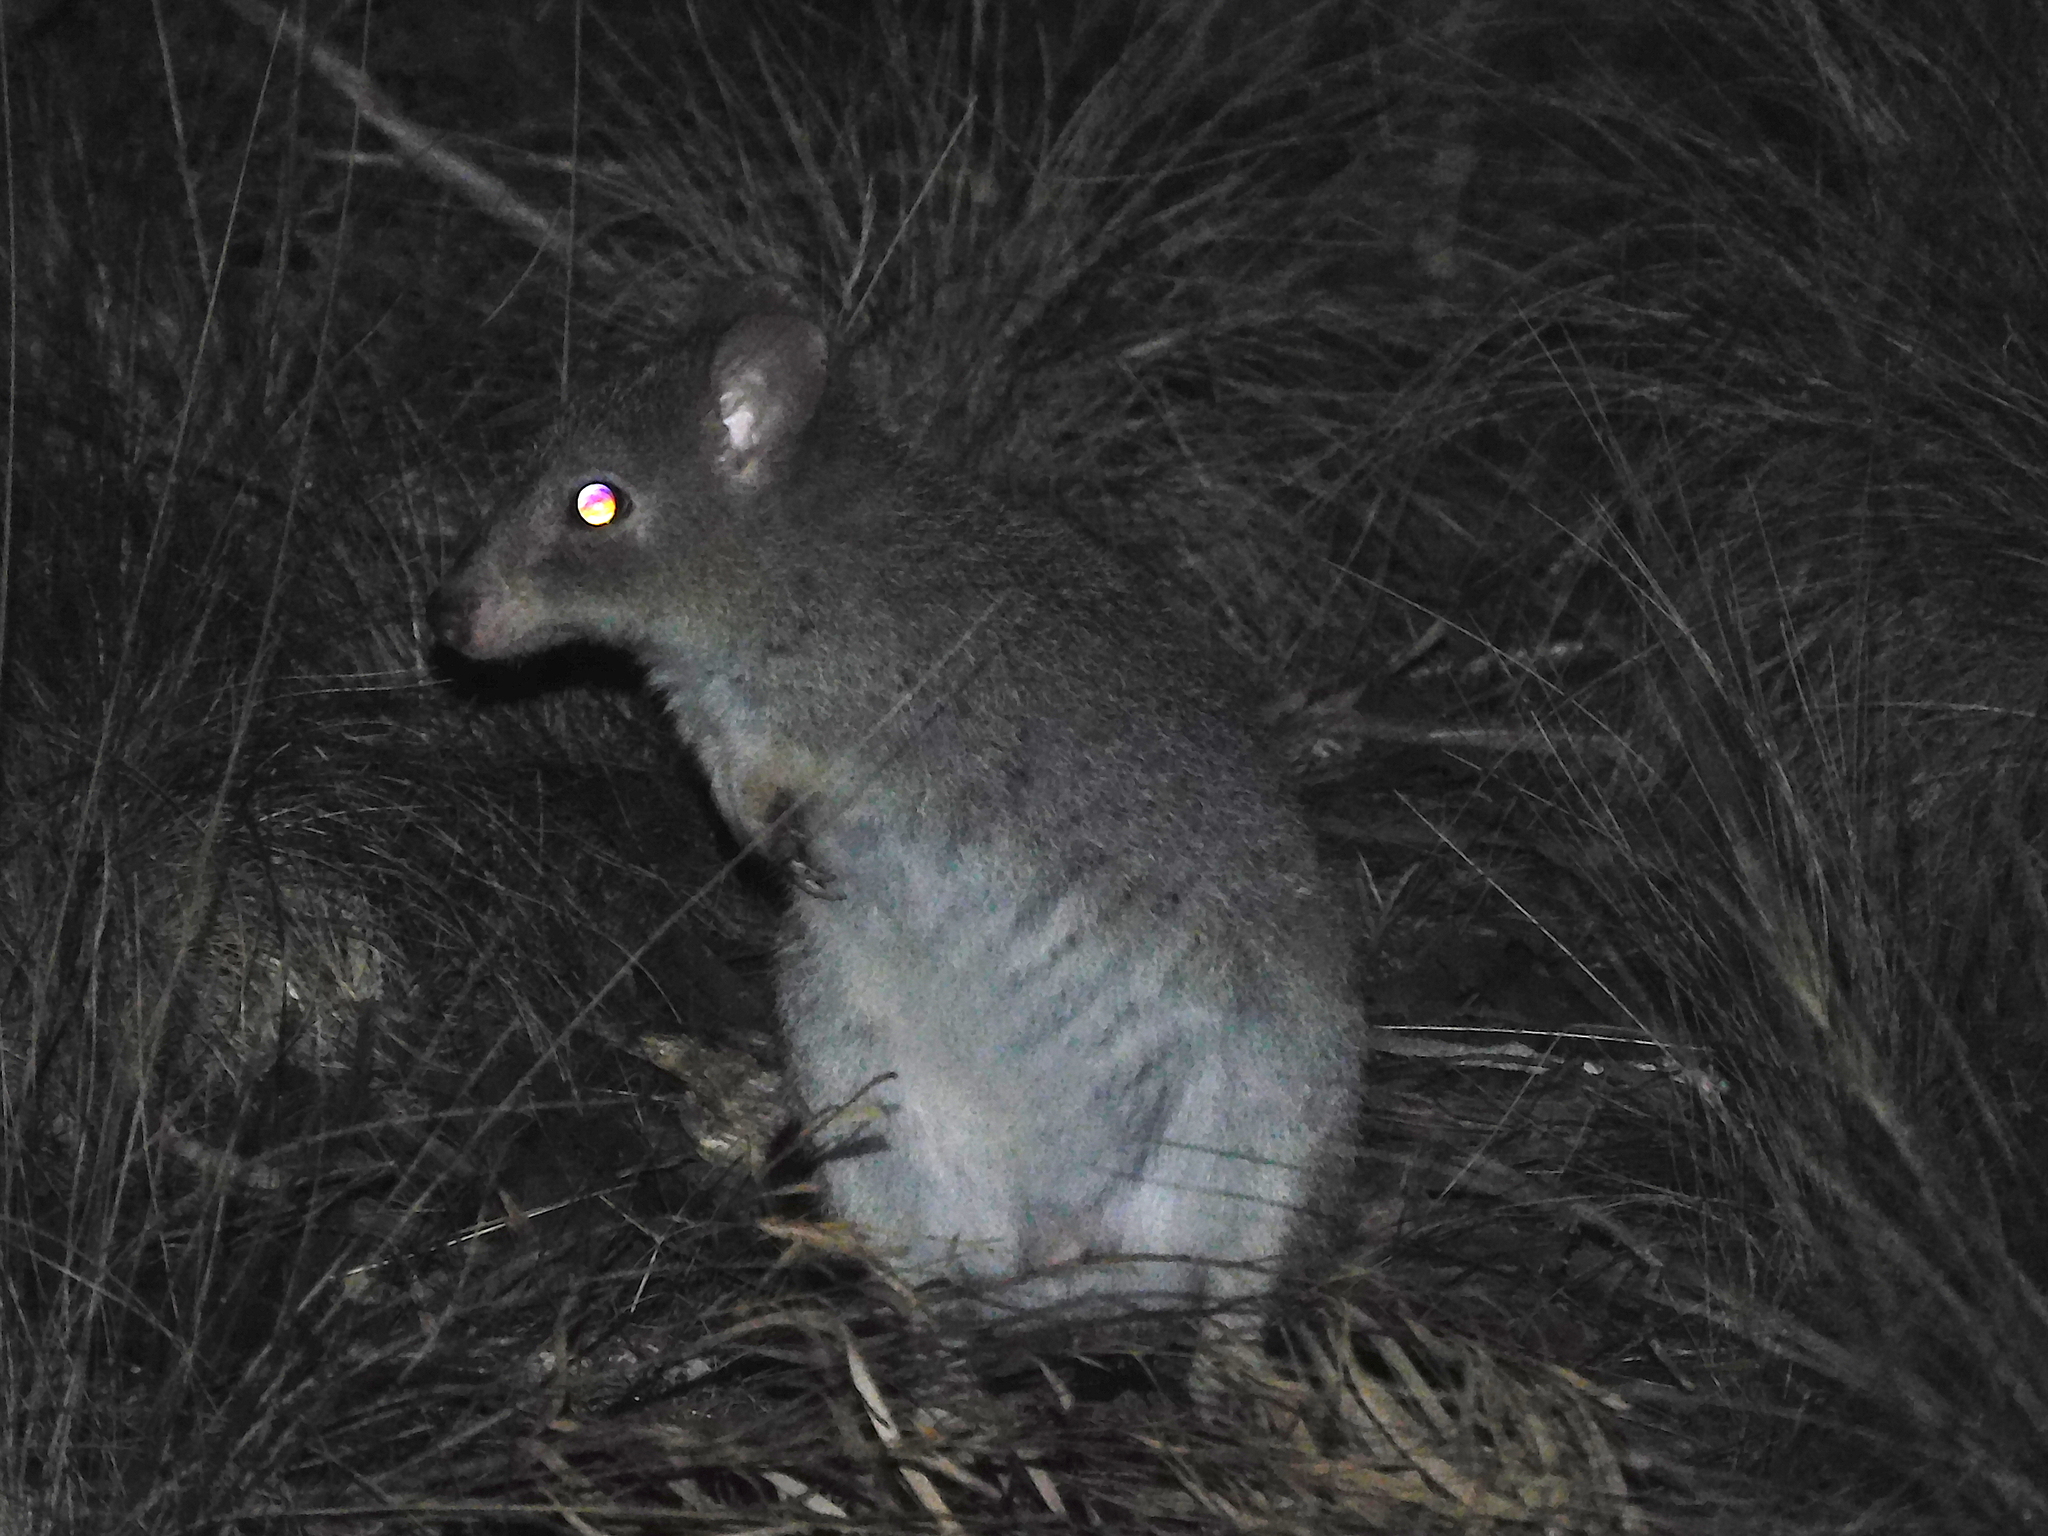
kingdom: Animalia
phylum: Chordata
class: Mammalia
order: Diprotodontia
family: Potoroidae
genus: Bettongia
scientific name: Bettongia gaimardi
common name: Eastern bettong
